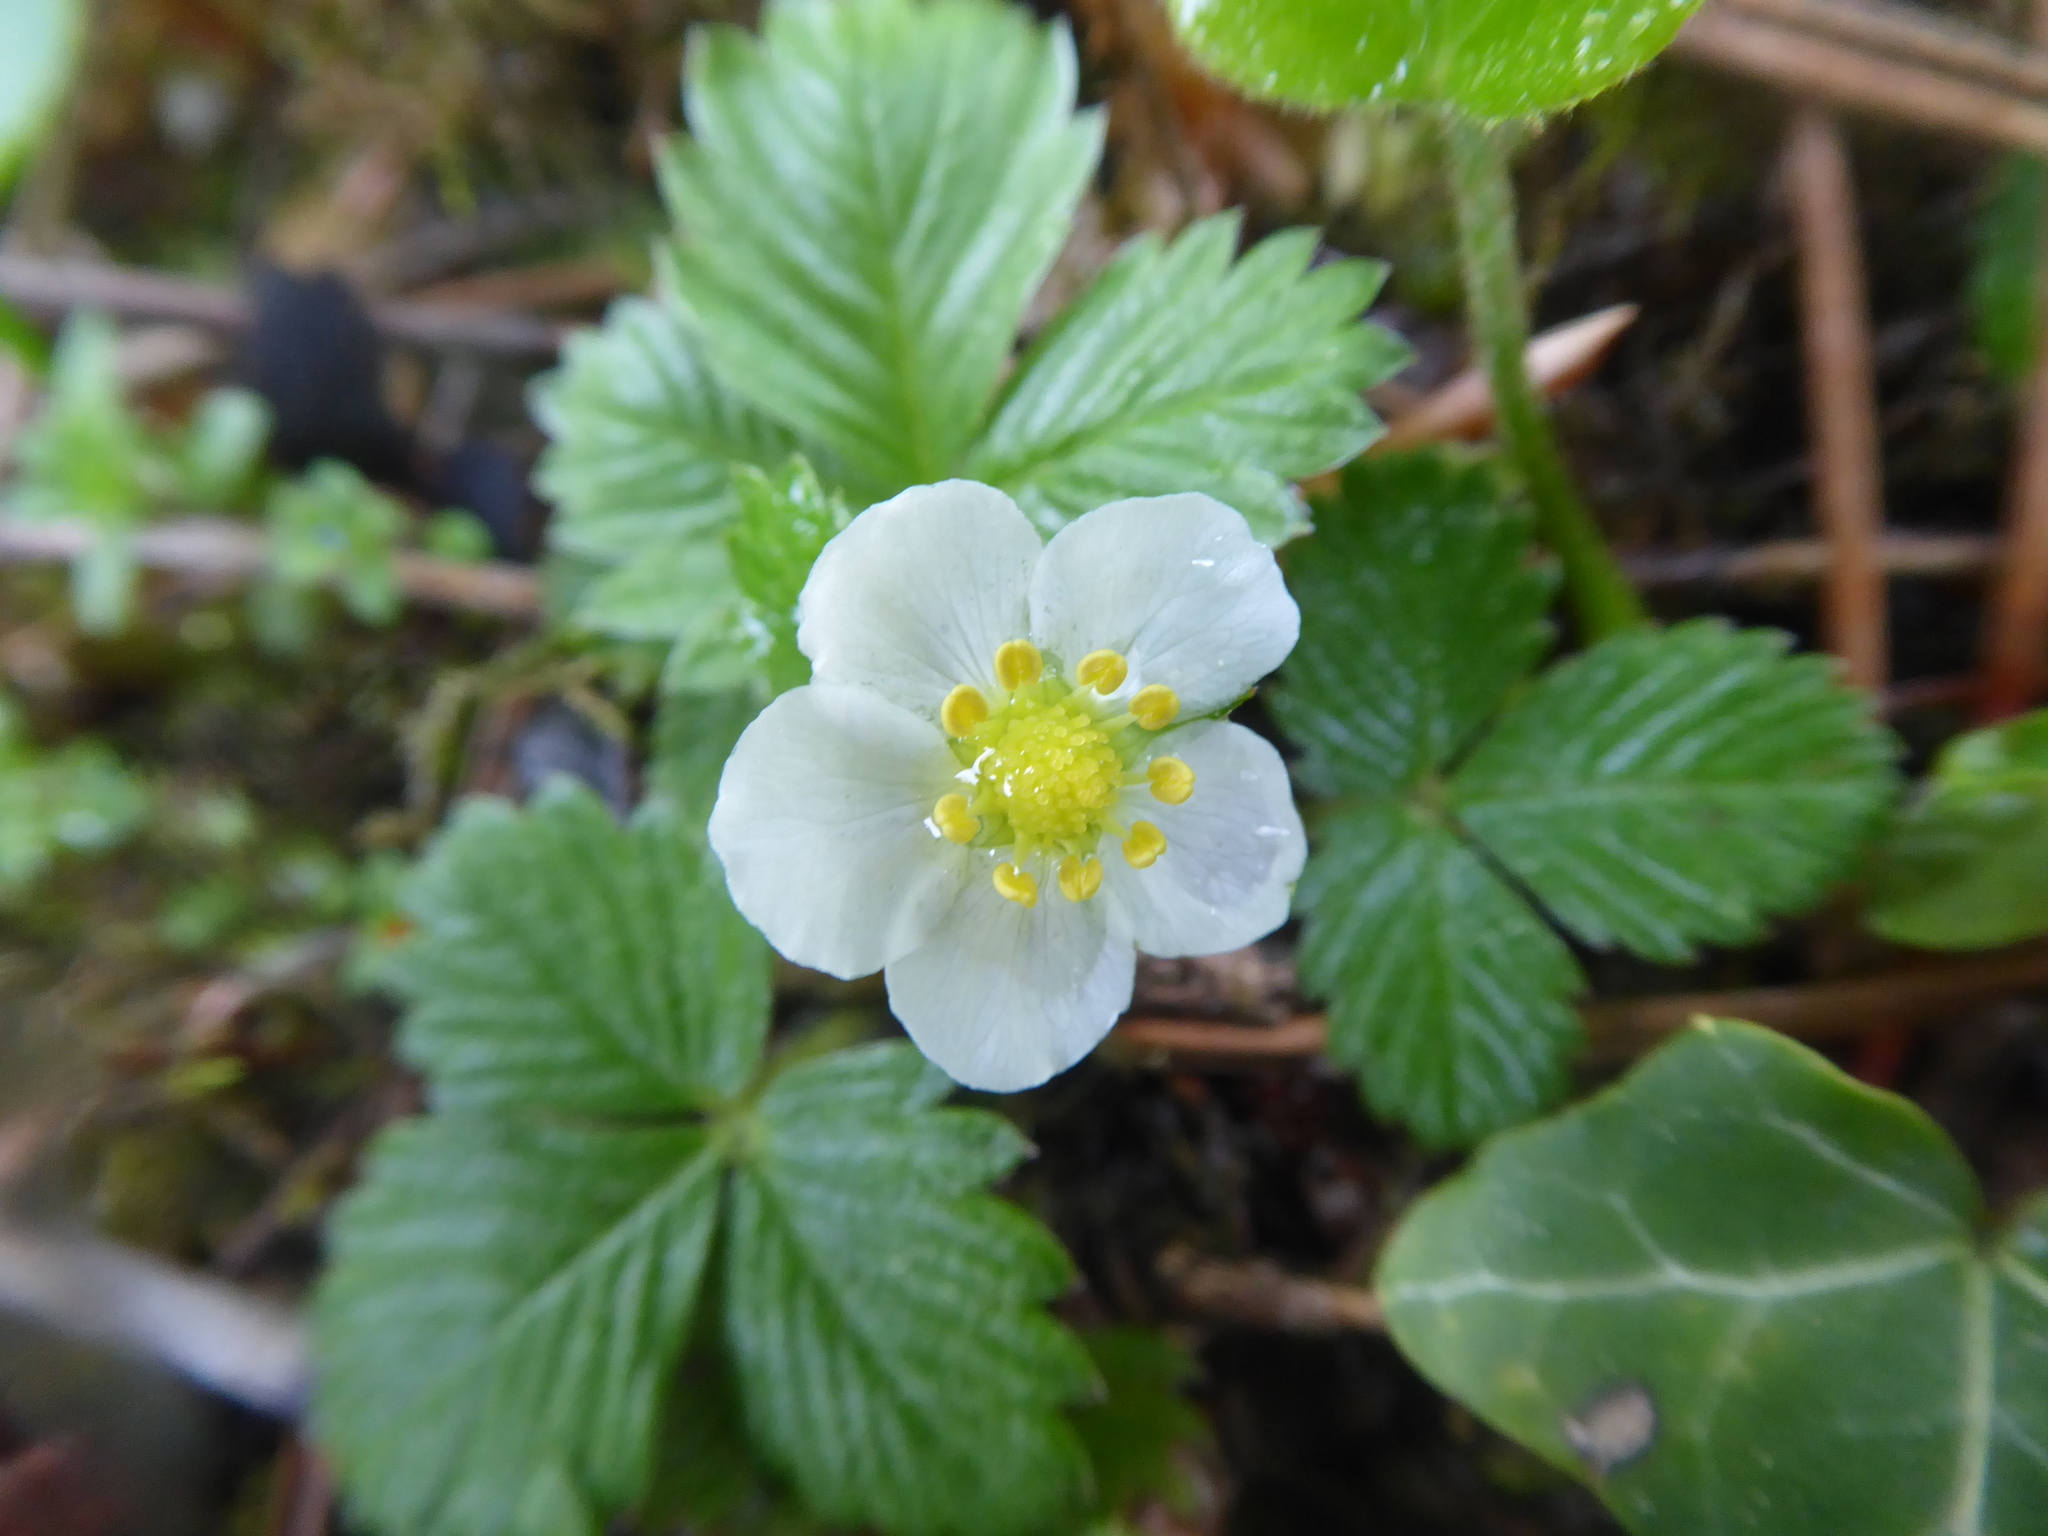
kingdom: Plantae
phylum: Tracheophyta
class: Magnoliopsida
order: Rosales
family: Rosaceae
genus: Fragaria
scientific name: Fragaria vesca
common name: Wild strawberry
